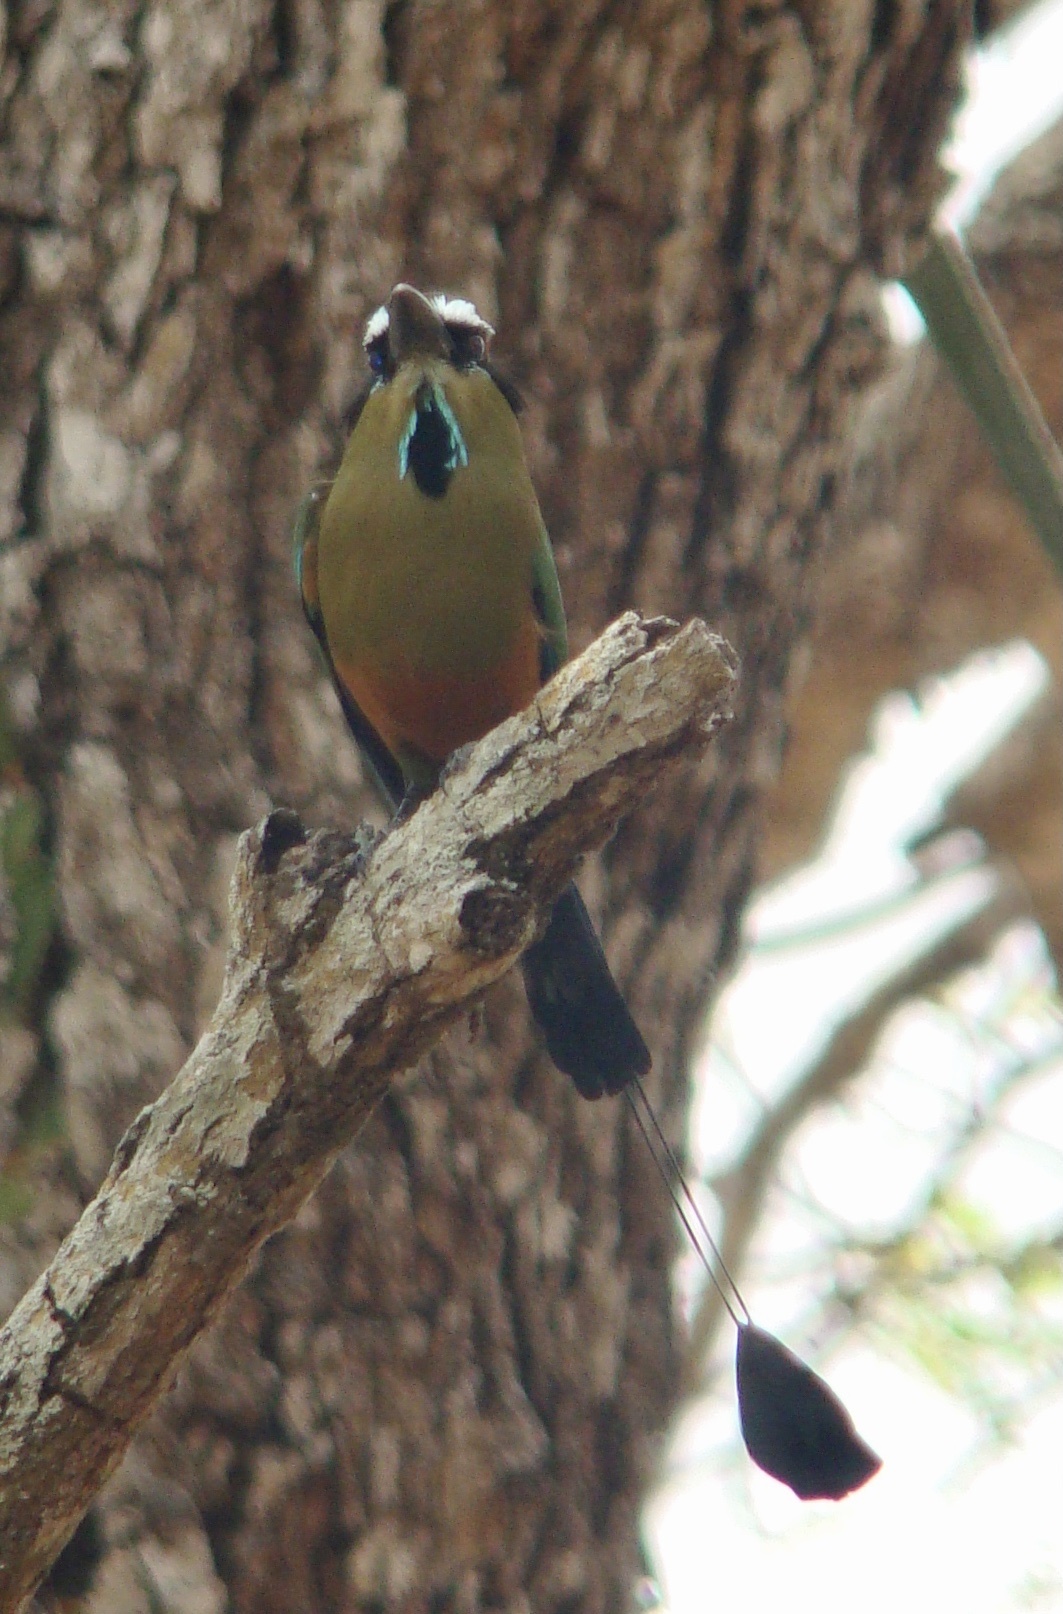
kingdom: Animalia
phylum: Chordata
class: Aves
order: Coraciiformes
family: Momotidae
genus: Eumomota
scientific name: Eumomota superciliosa
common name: Turquoise-browed motmot
